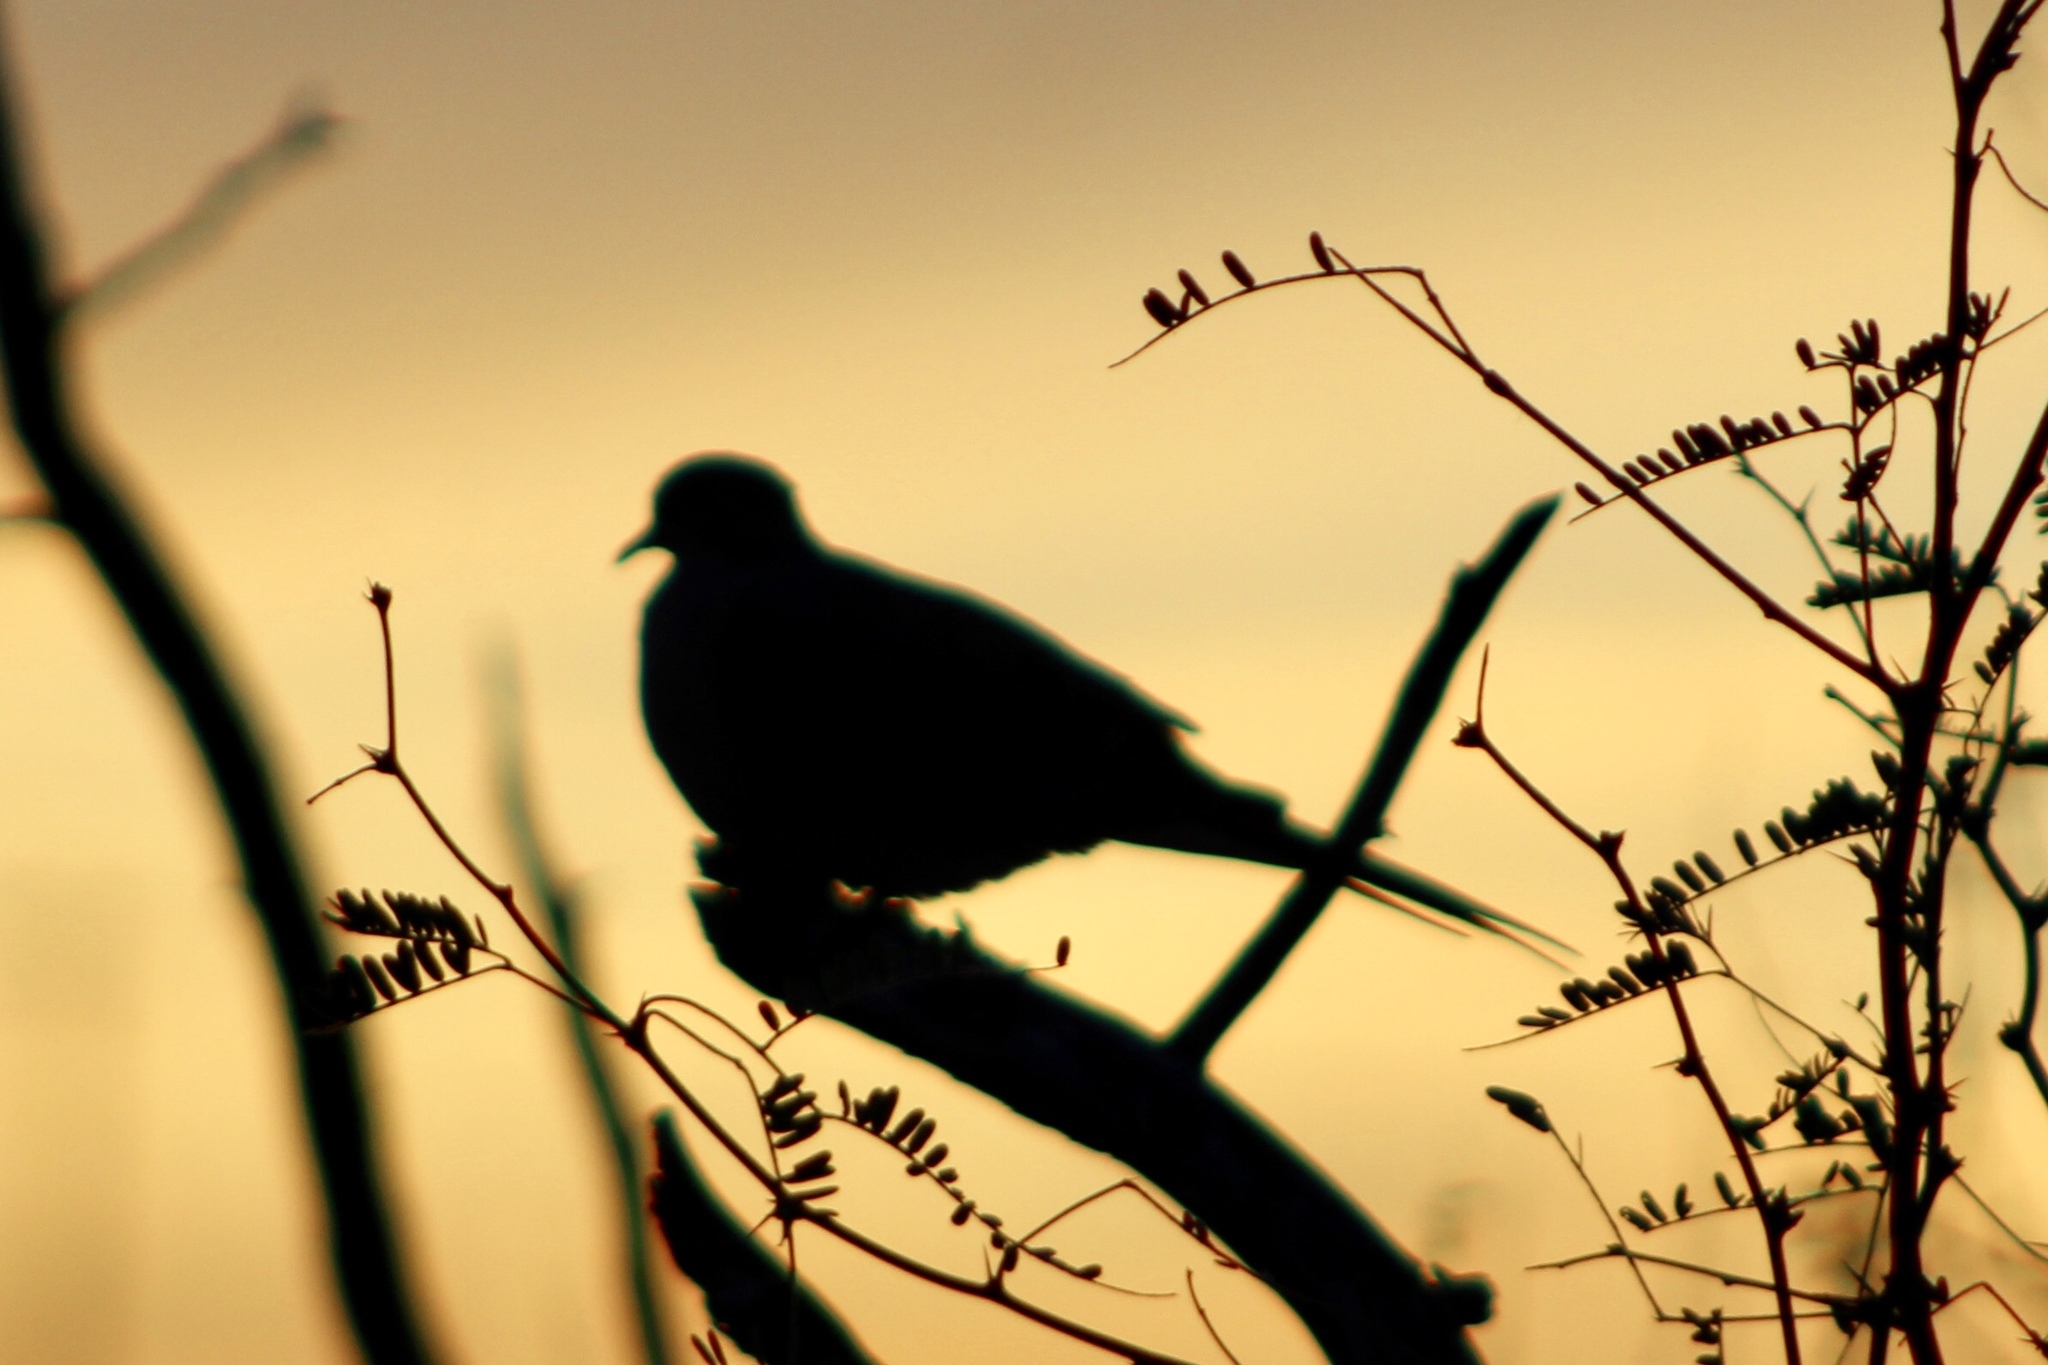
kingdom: Animalia
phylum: Chordata
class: Aves
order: Columbiformes
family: Columbidae
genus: Zenaida
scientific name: Zenaida macroura
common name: Mourning dove
